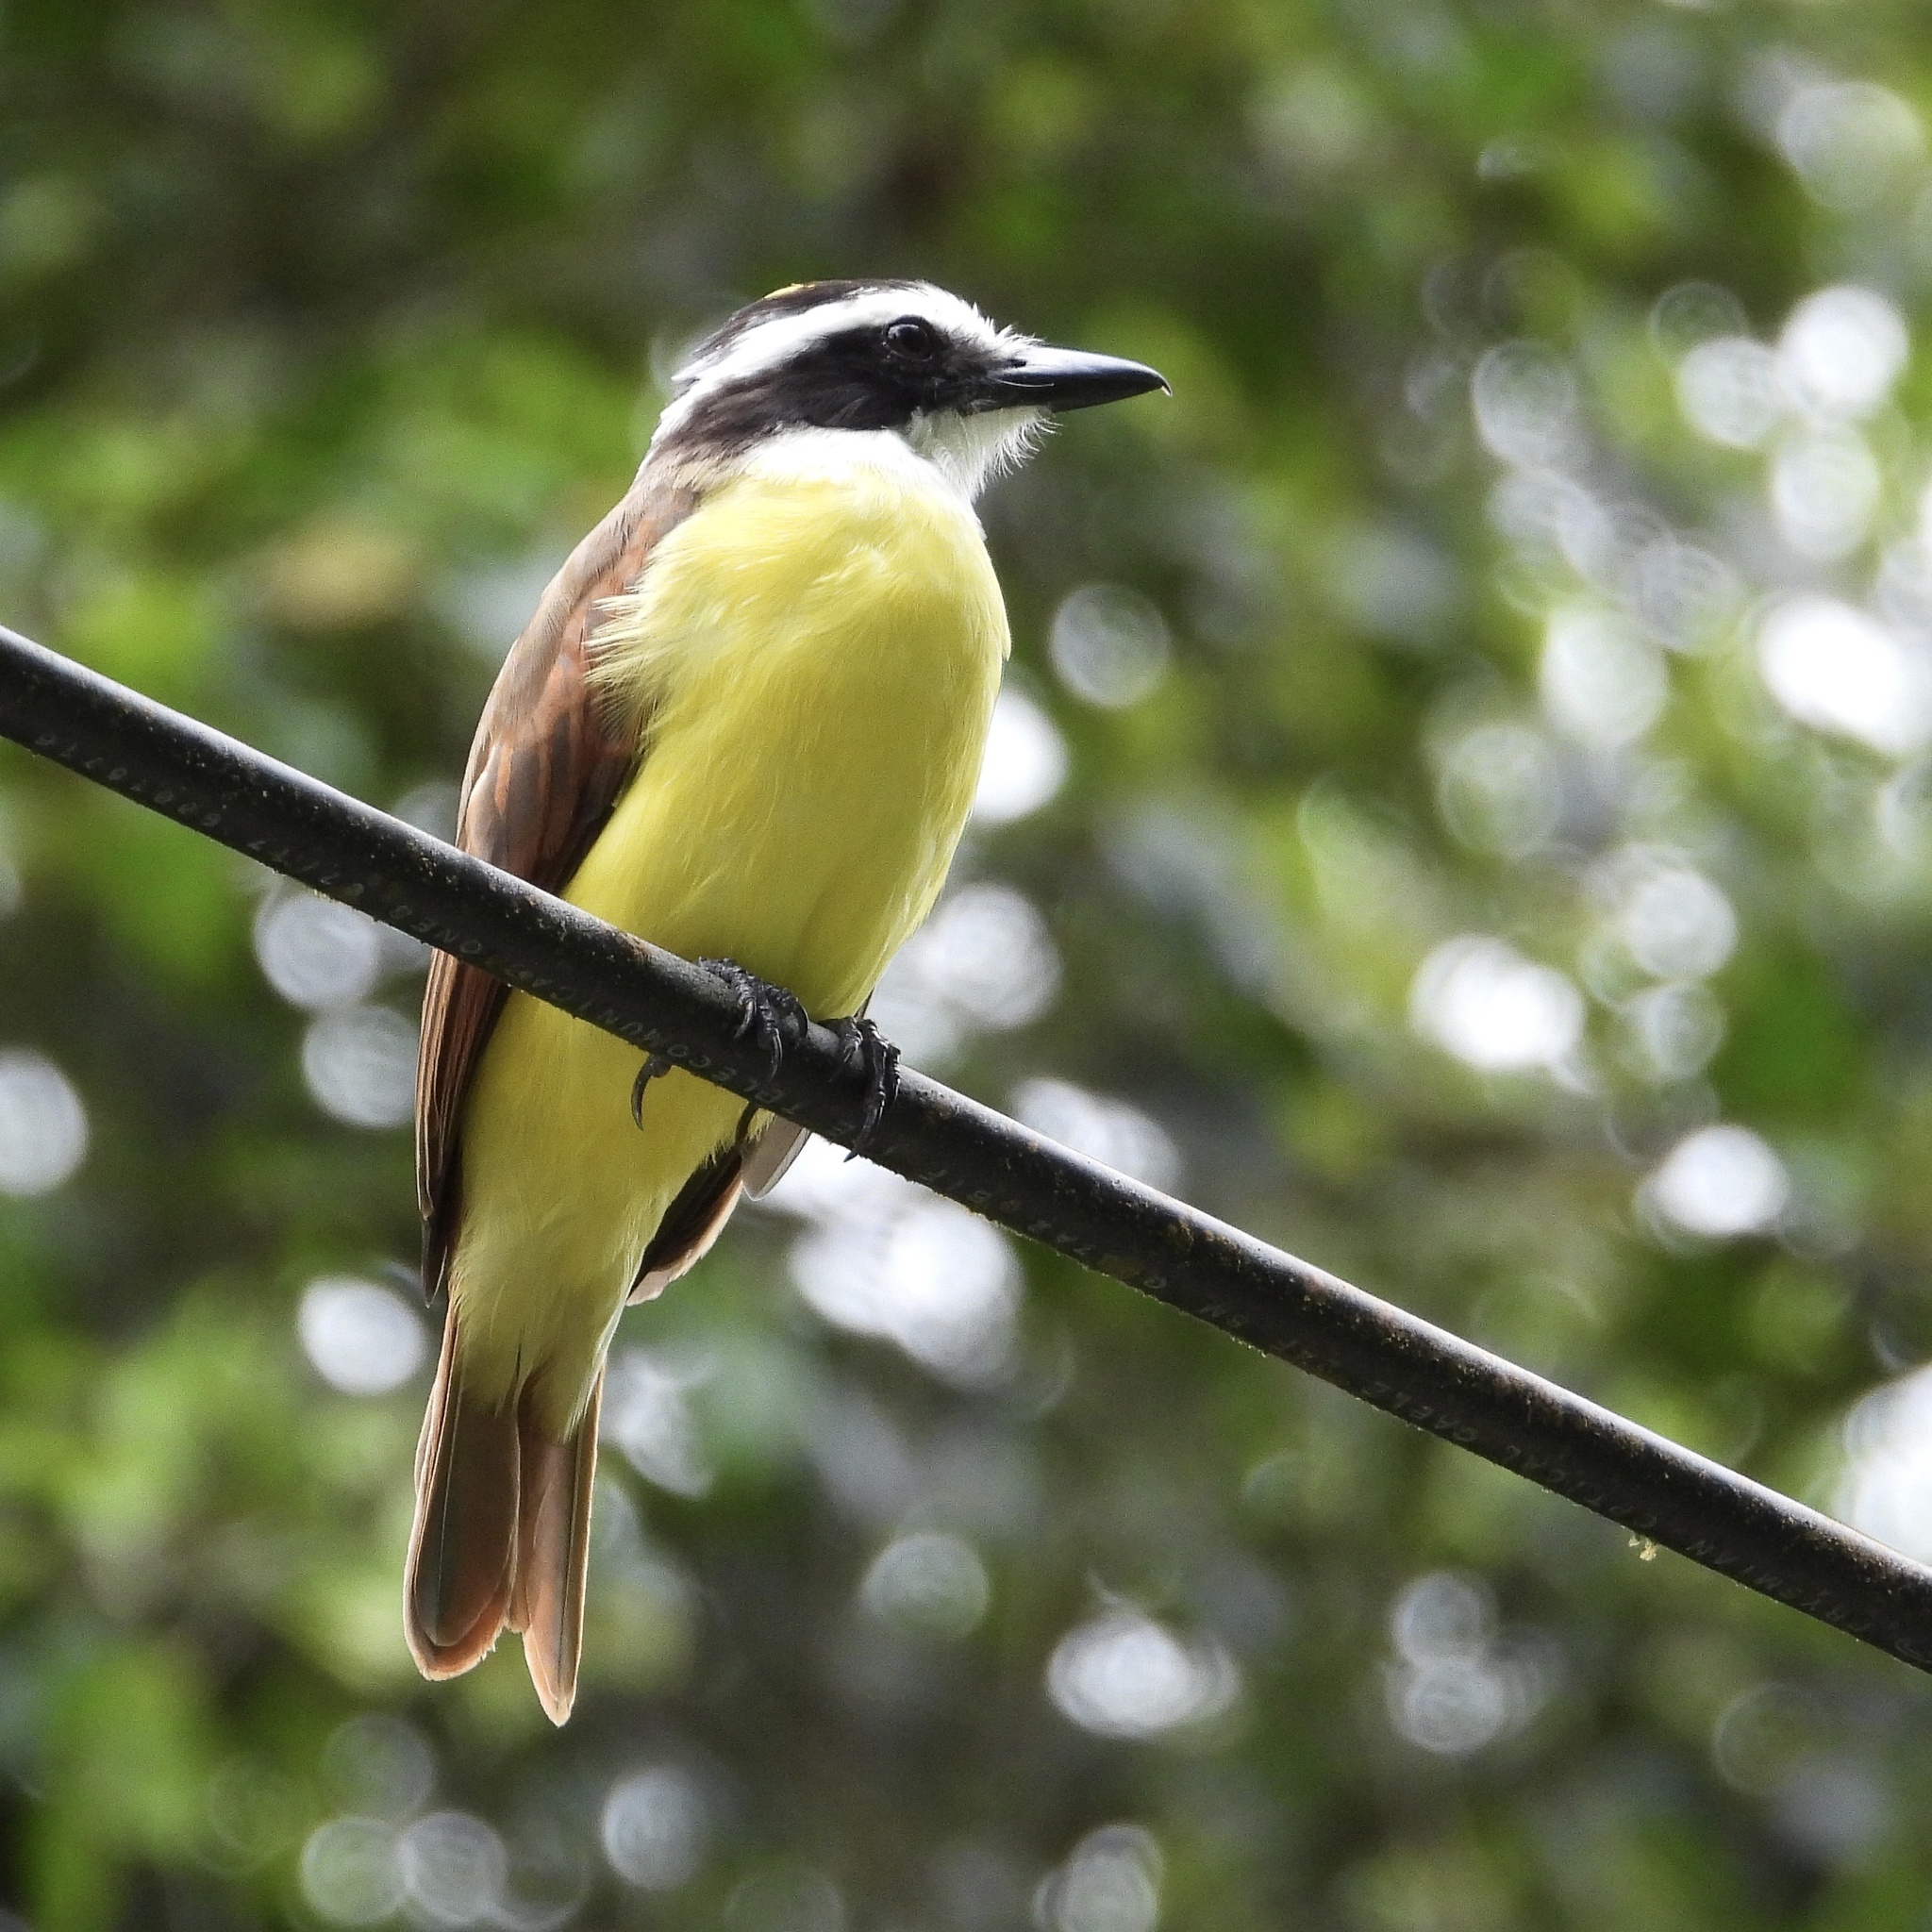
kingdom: Animalia
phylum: Chordata
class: Aves
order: Passeriformes
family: Tyrannidae
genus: Pitangus
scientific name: Pitangus sulphuratus
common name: Great kiskadee
